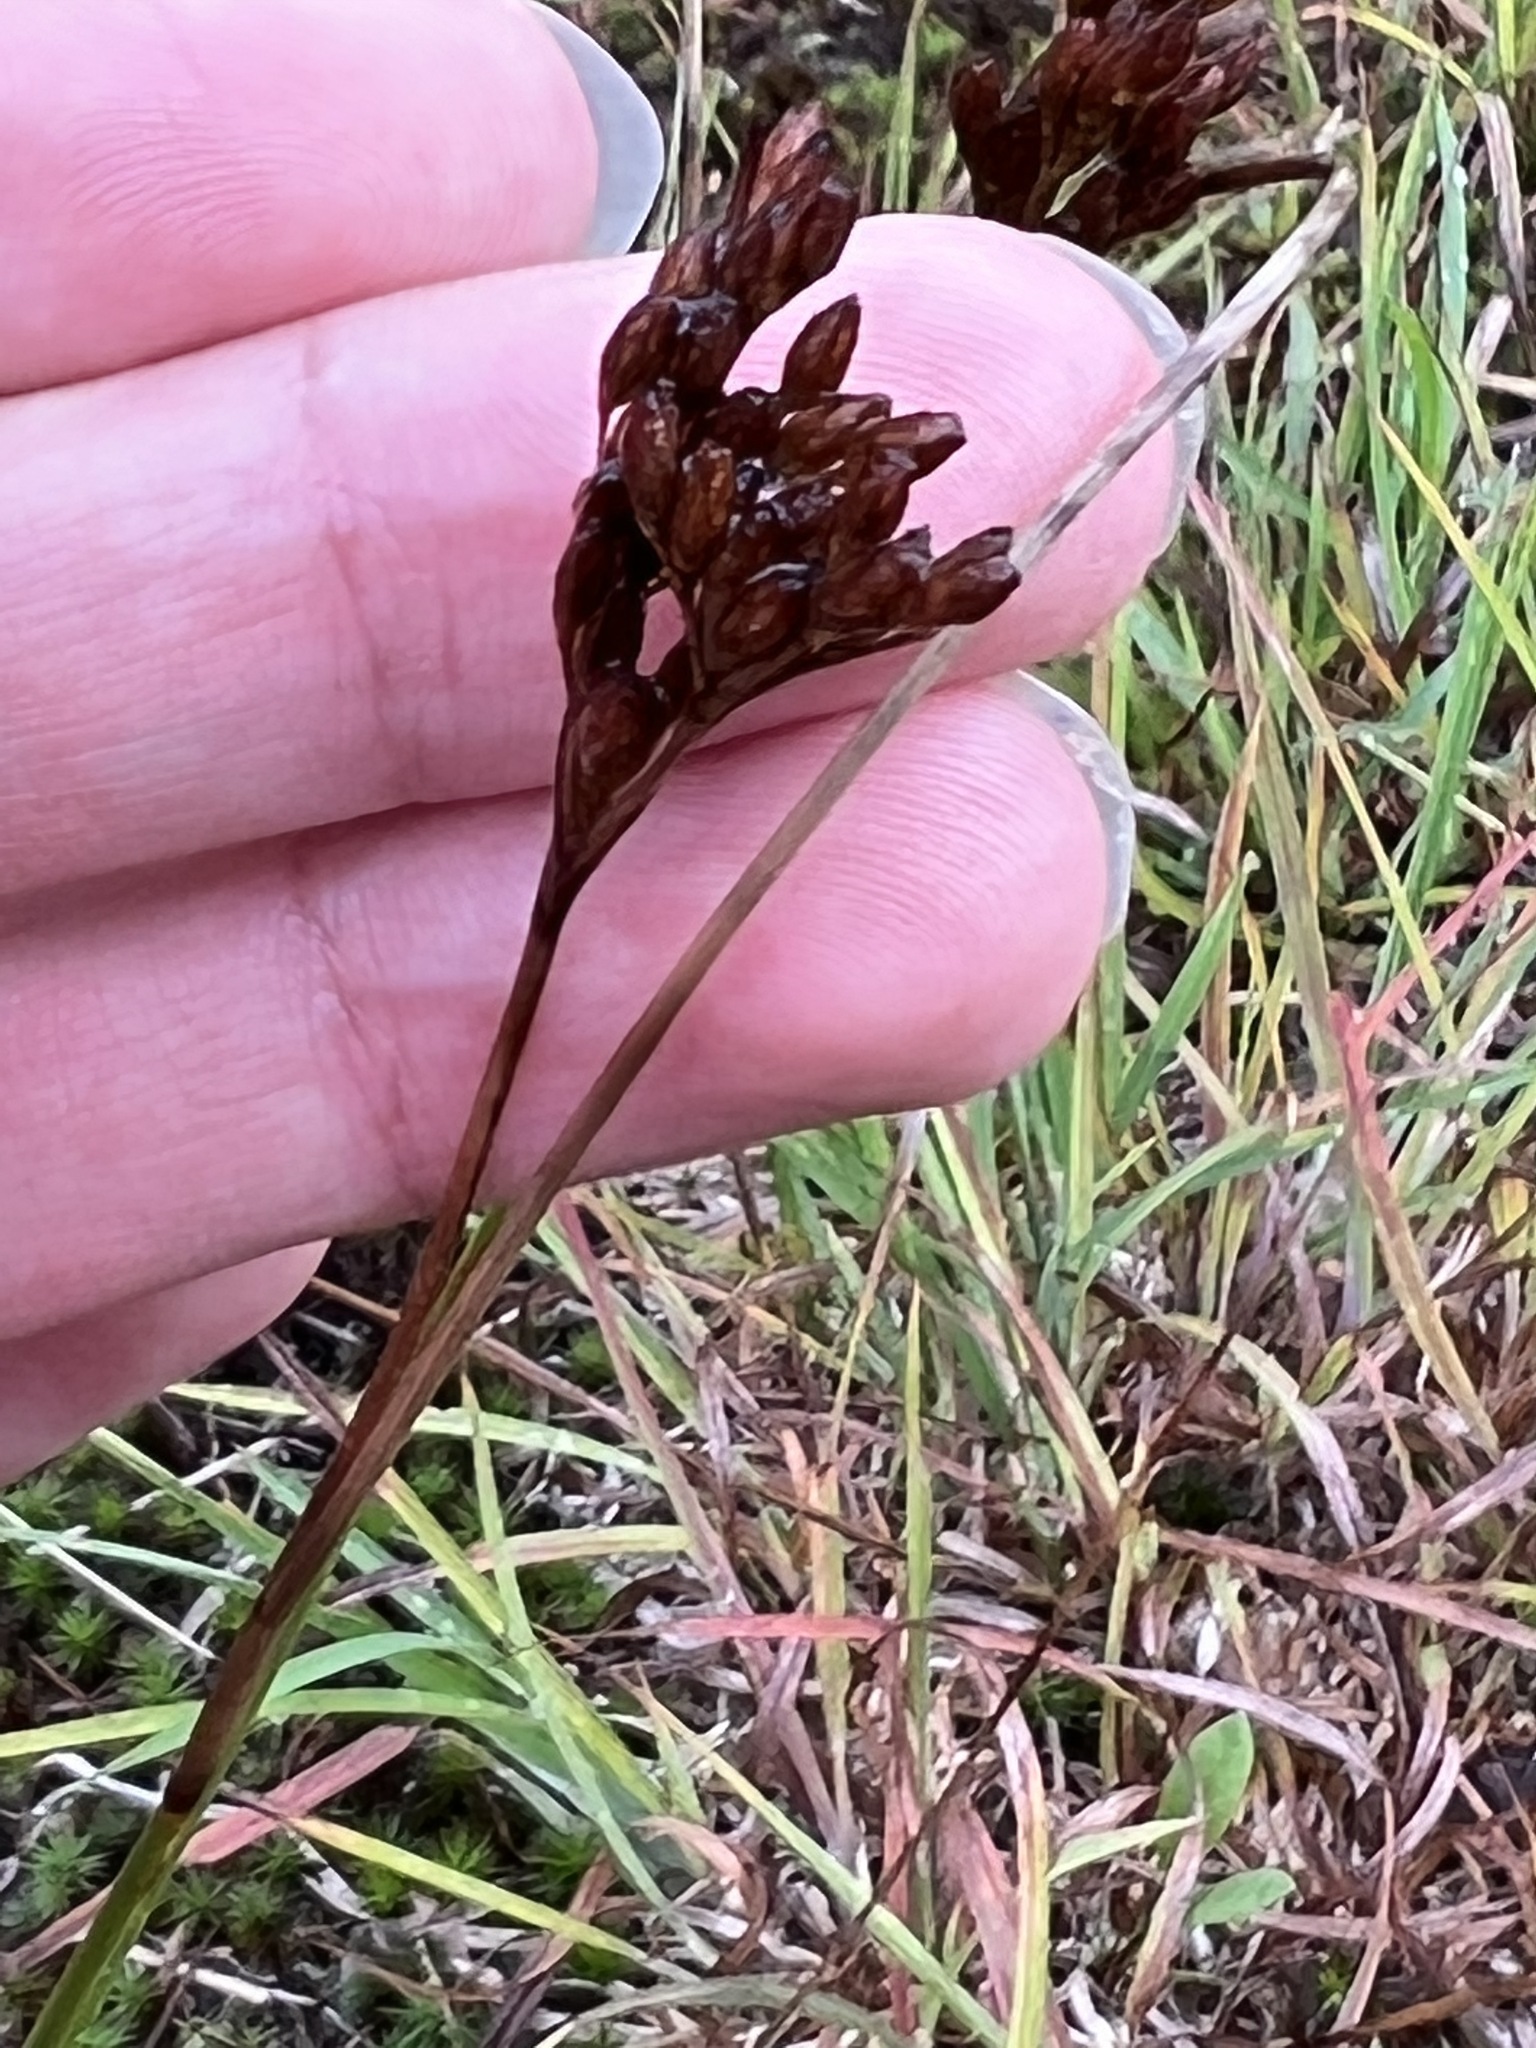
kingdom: Plantae
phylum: Tracheophyta
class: Liliopsida
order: Poales
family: Juncaceae
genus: Juncus
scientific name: Juncus greenei
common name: Greene's rush
